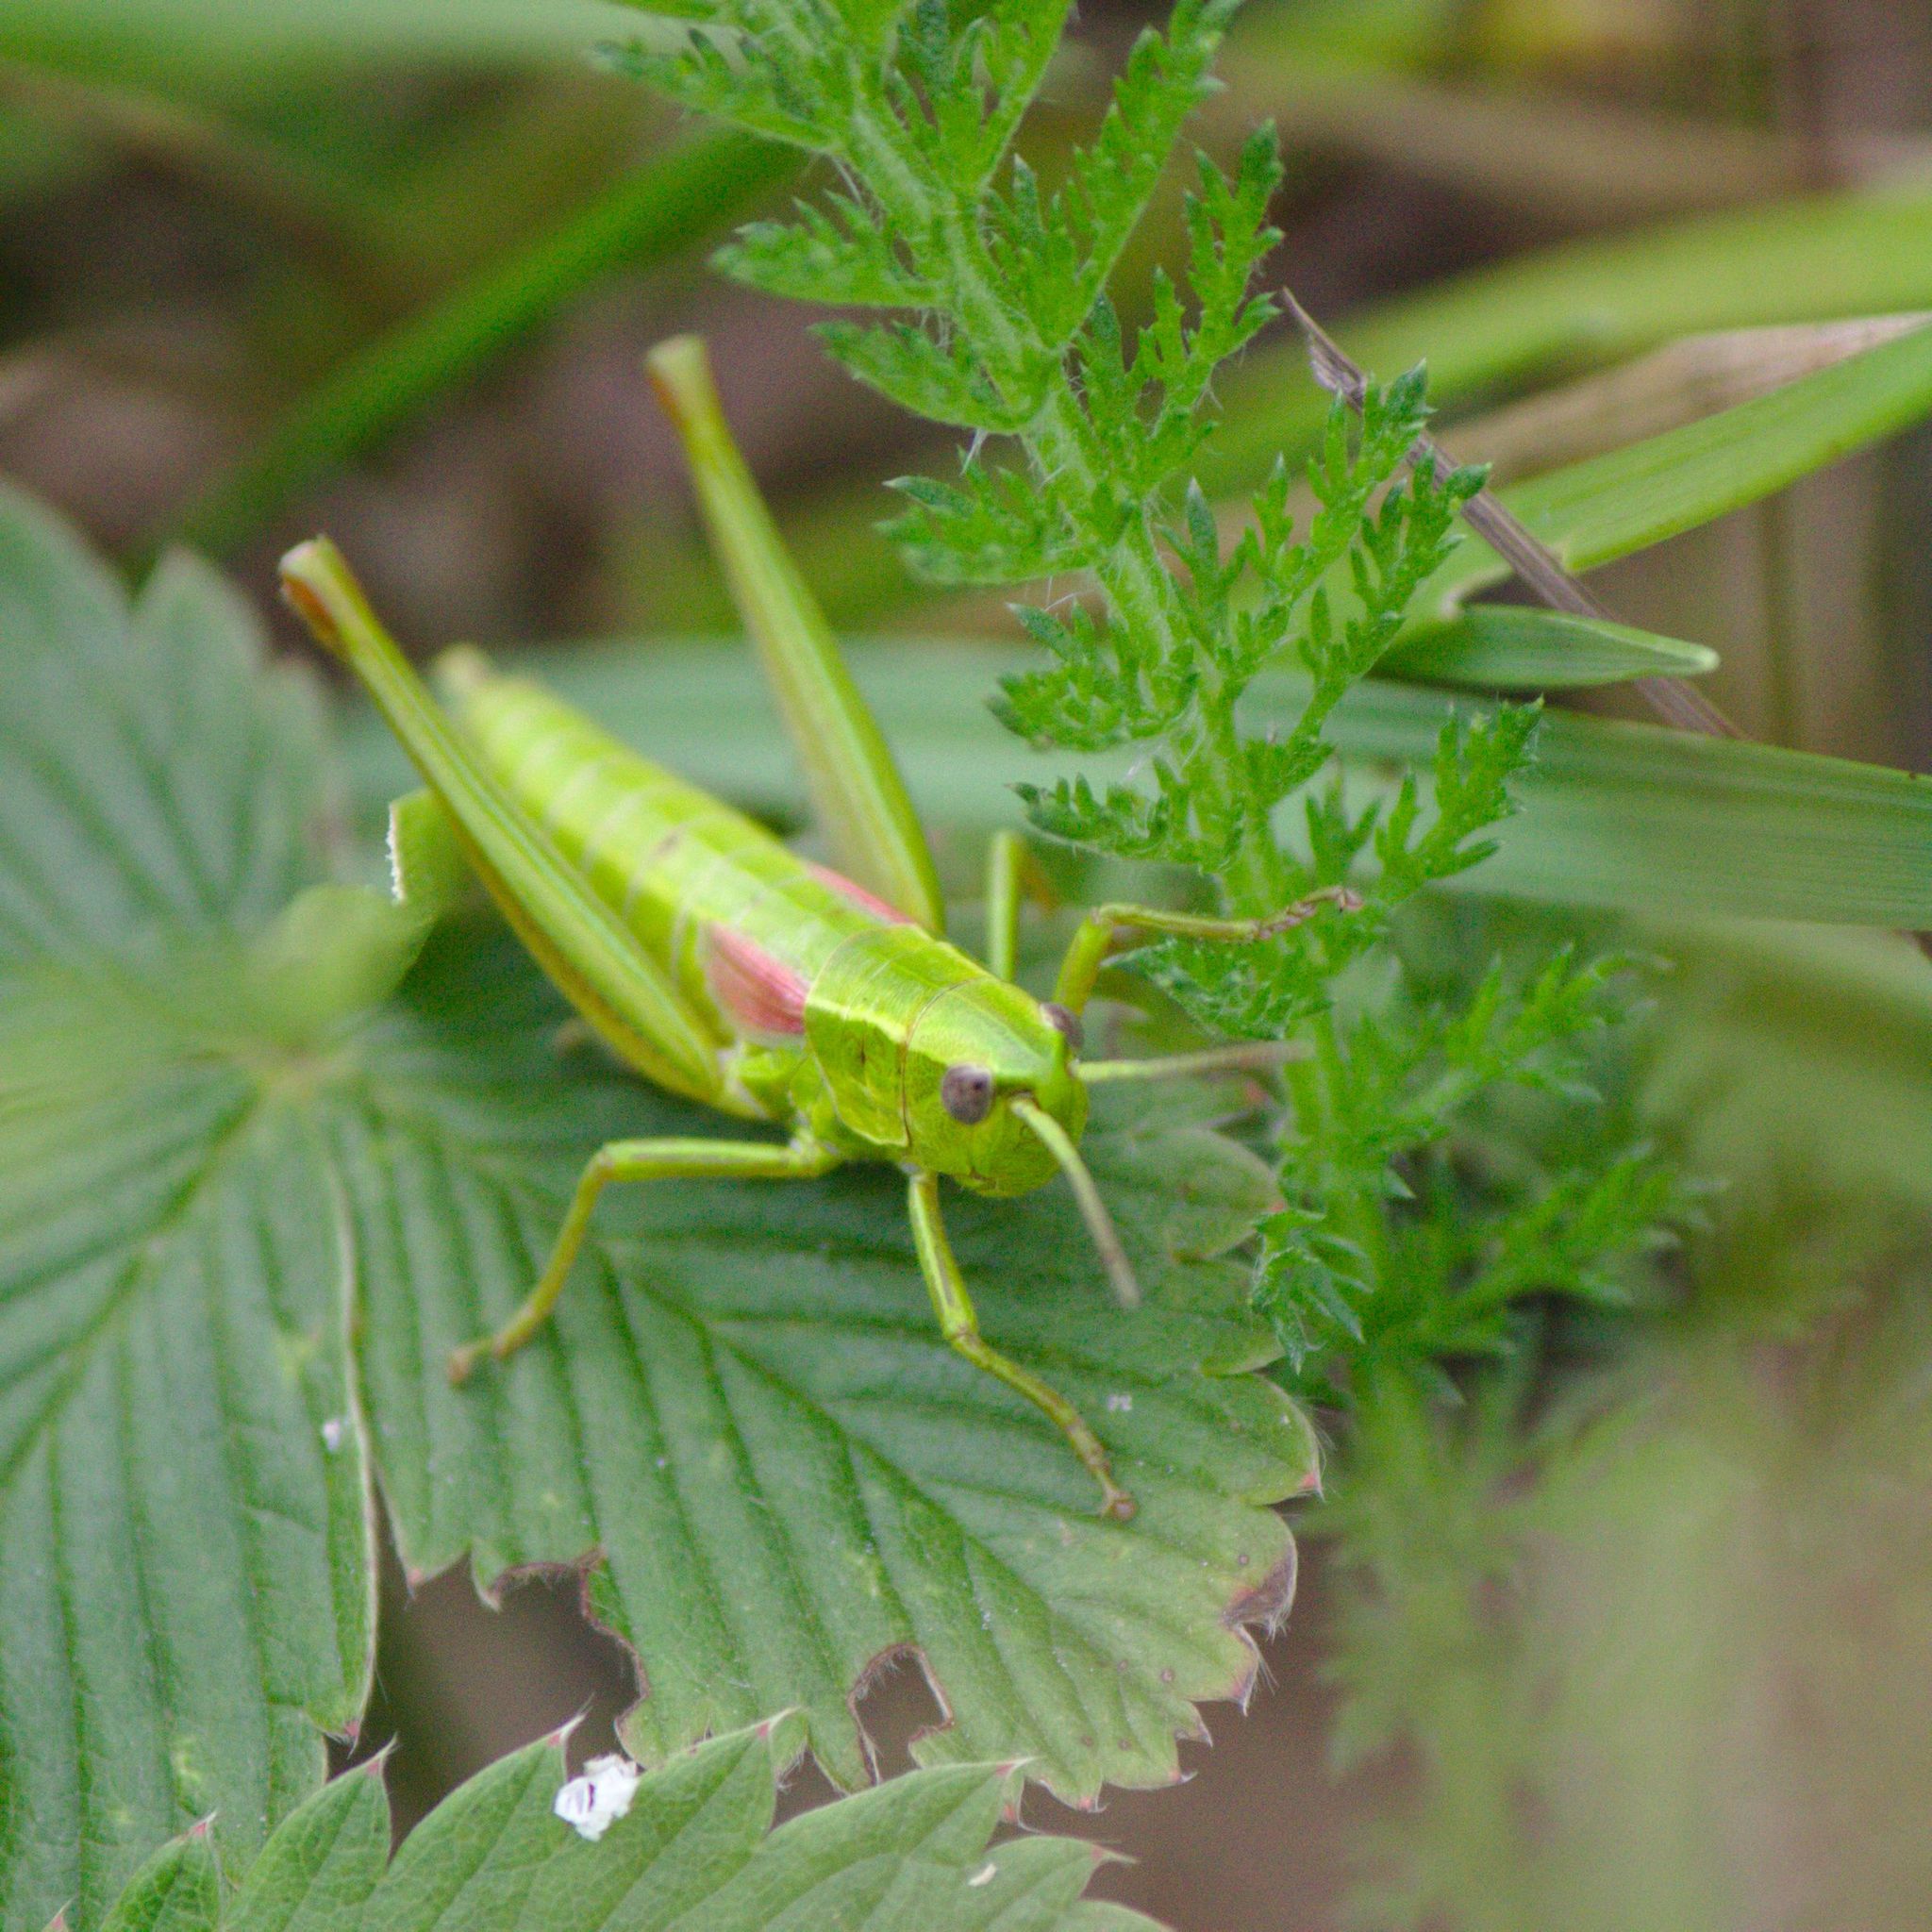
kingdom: Animalia
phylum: Arthropoda
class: Insecta
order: Orthoptera
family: Acrididae
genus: Euthystira
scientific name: Euthystira brachyptera
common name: Small gold grasshopper
